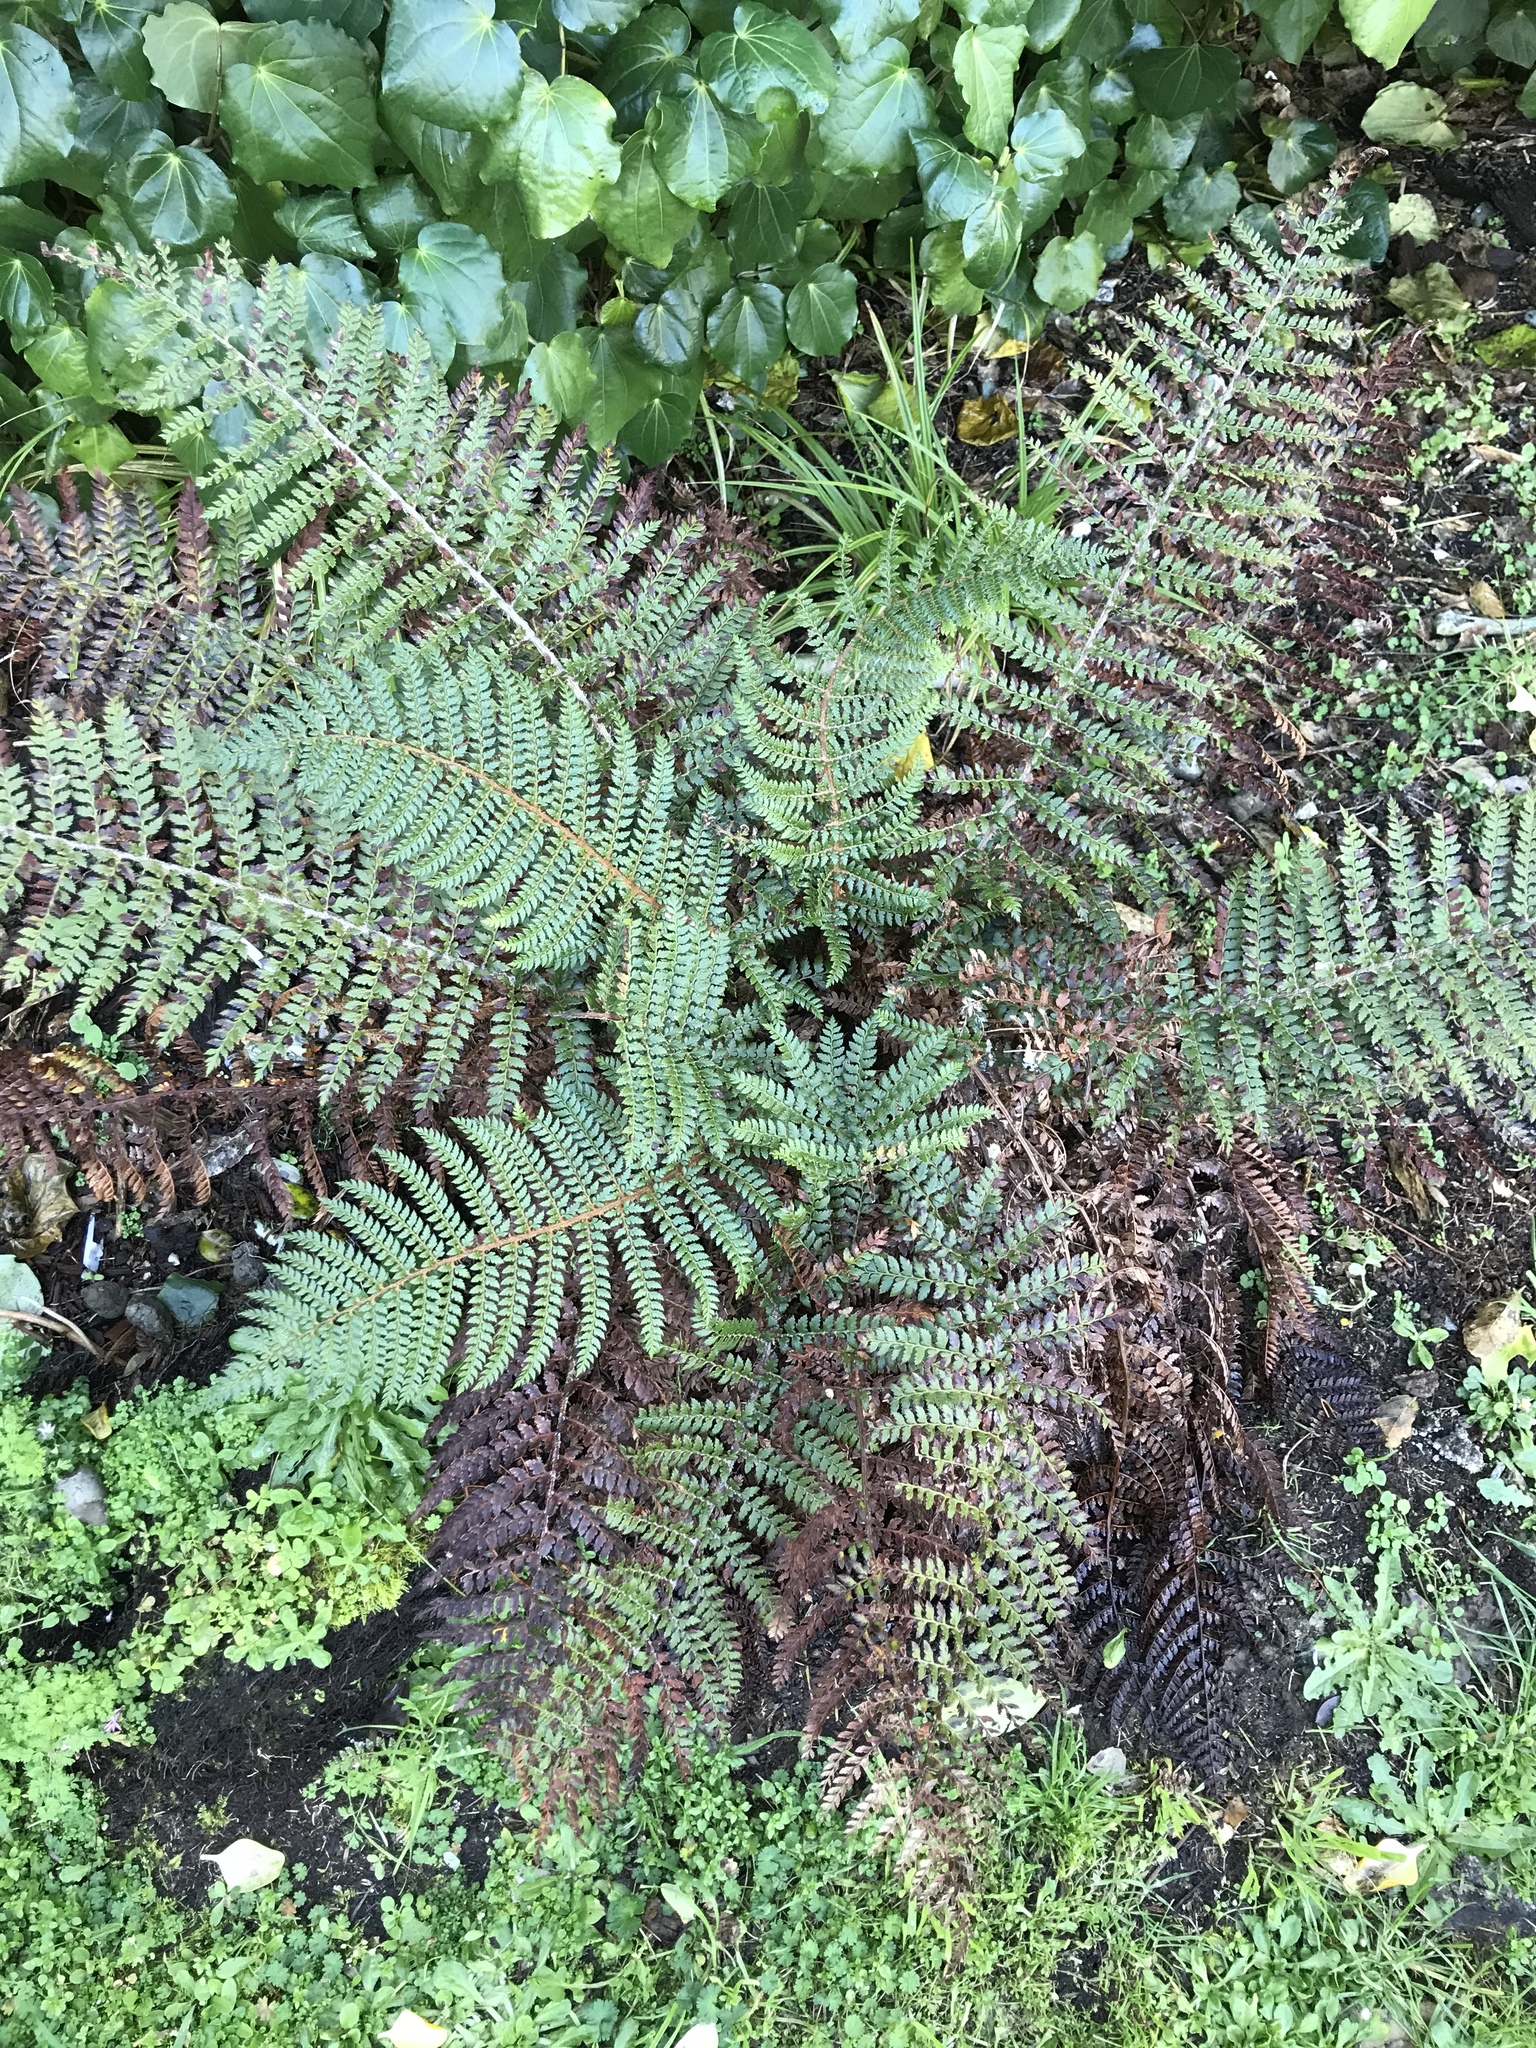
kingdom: Plantae
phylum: Tracheophyta
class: Polypodiopsida
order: Polypodiales
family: Dryopteridaceae
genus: Polystichum
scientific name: Polystichum vestitum
